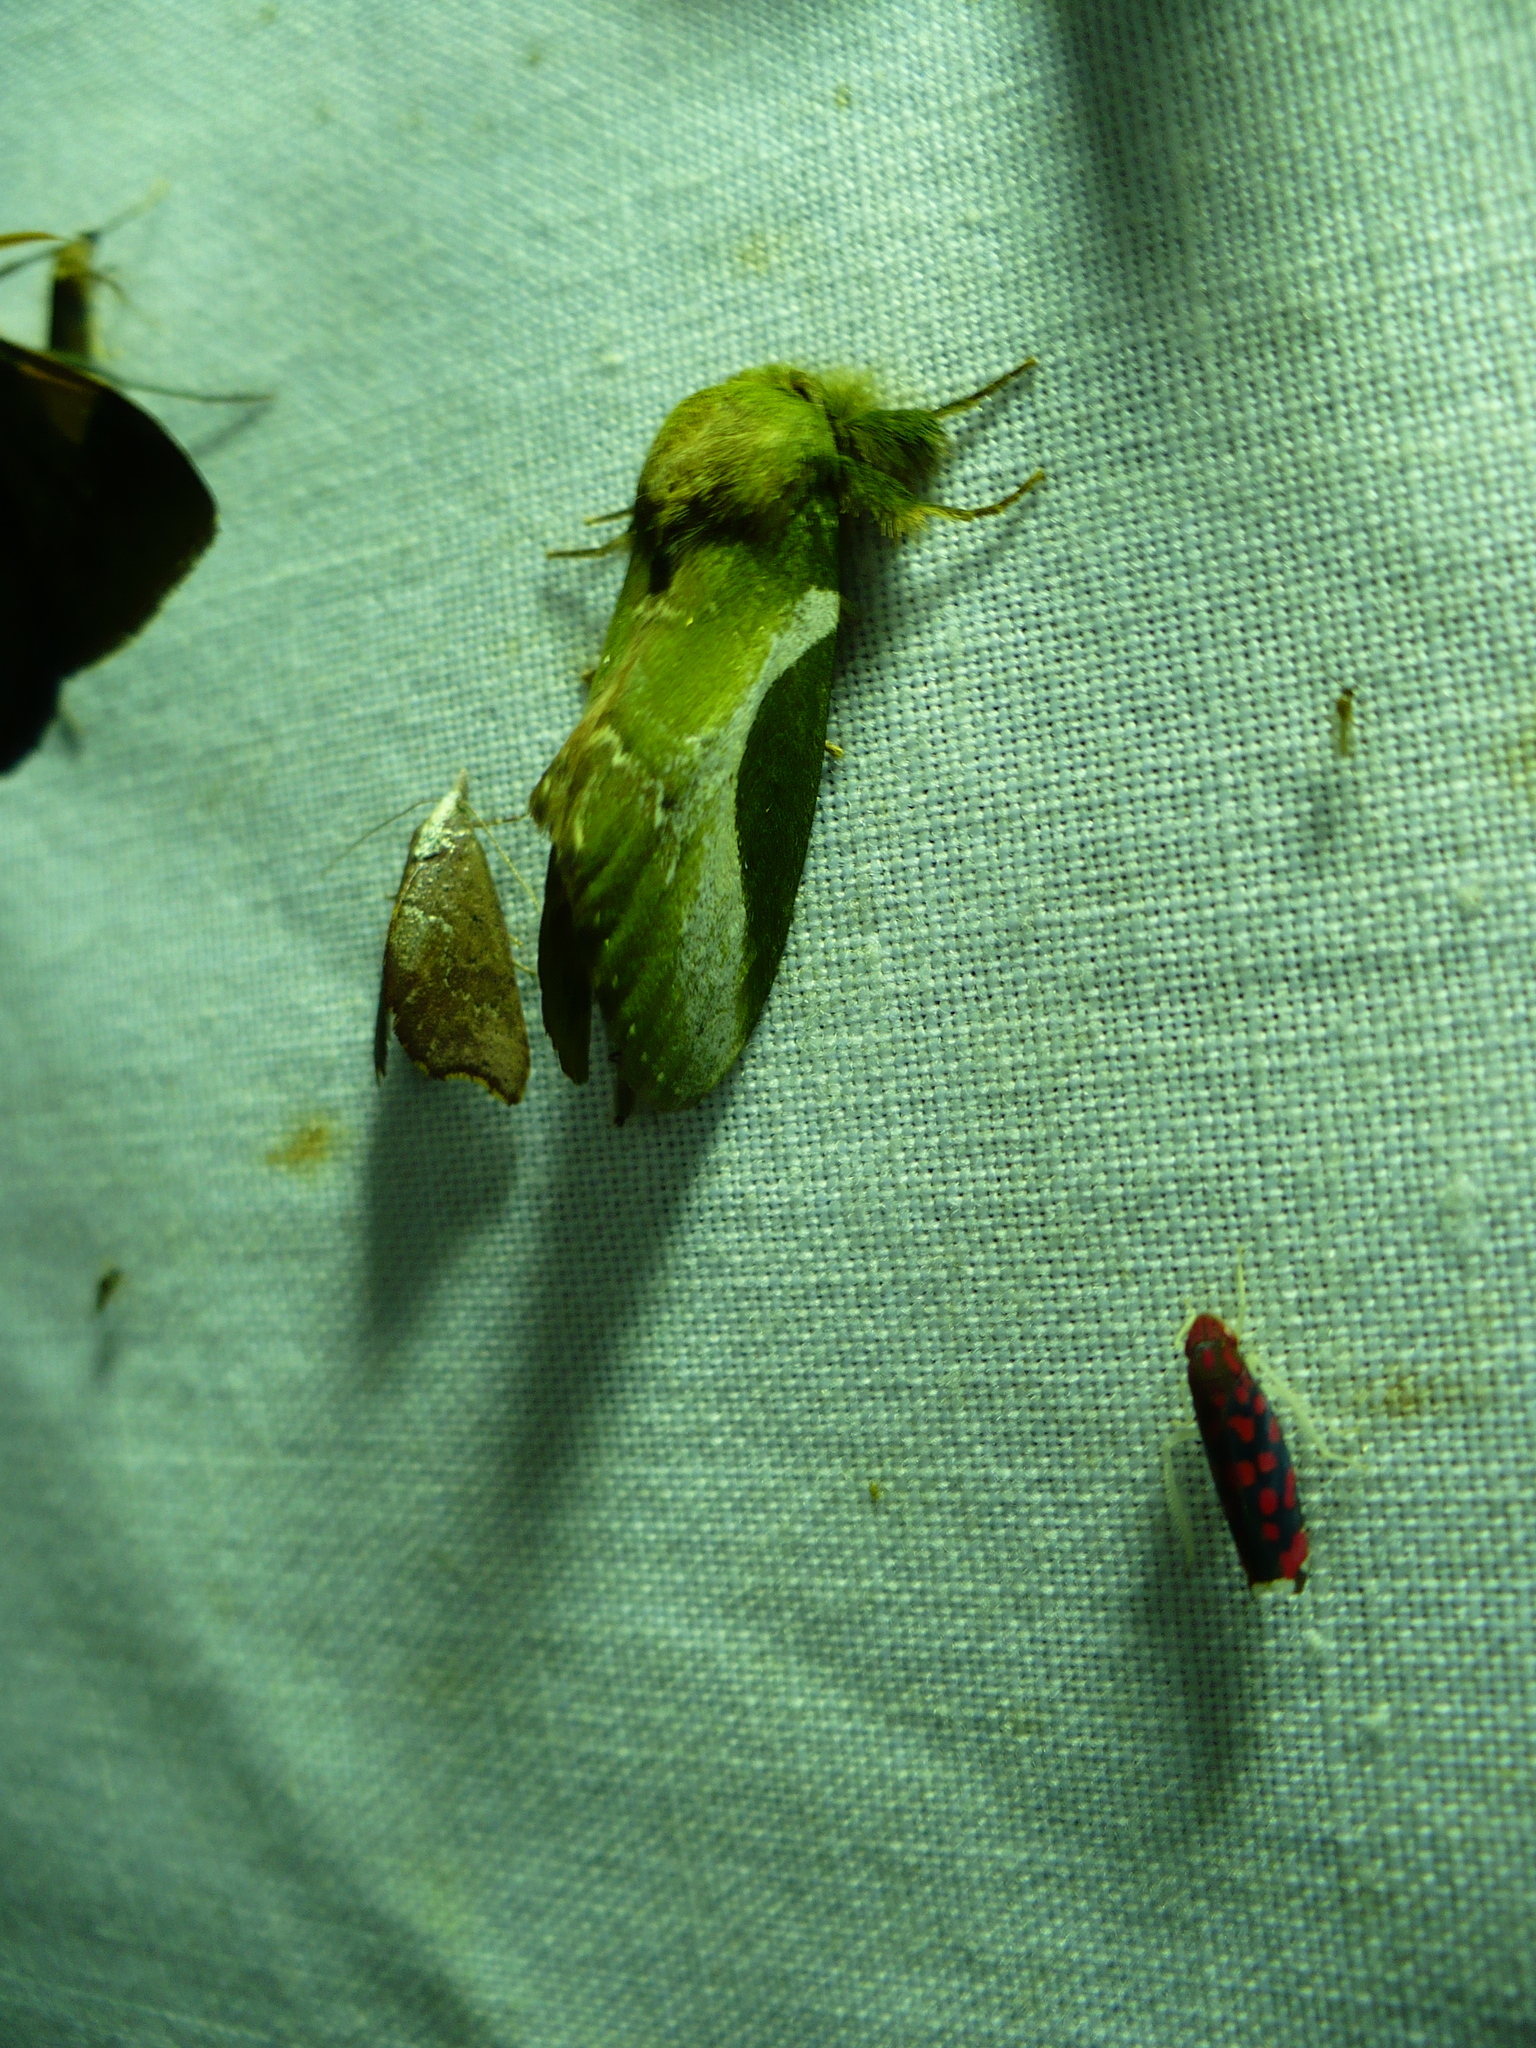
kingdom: Animalia
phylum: Arthropoda
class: Insecta
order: Lepidoptera
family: Notodontidae
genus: Disphragis
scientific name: Disphragis splendens
